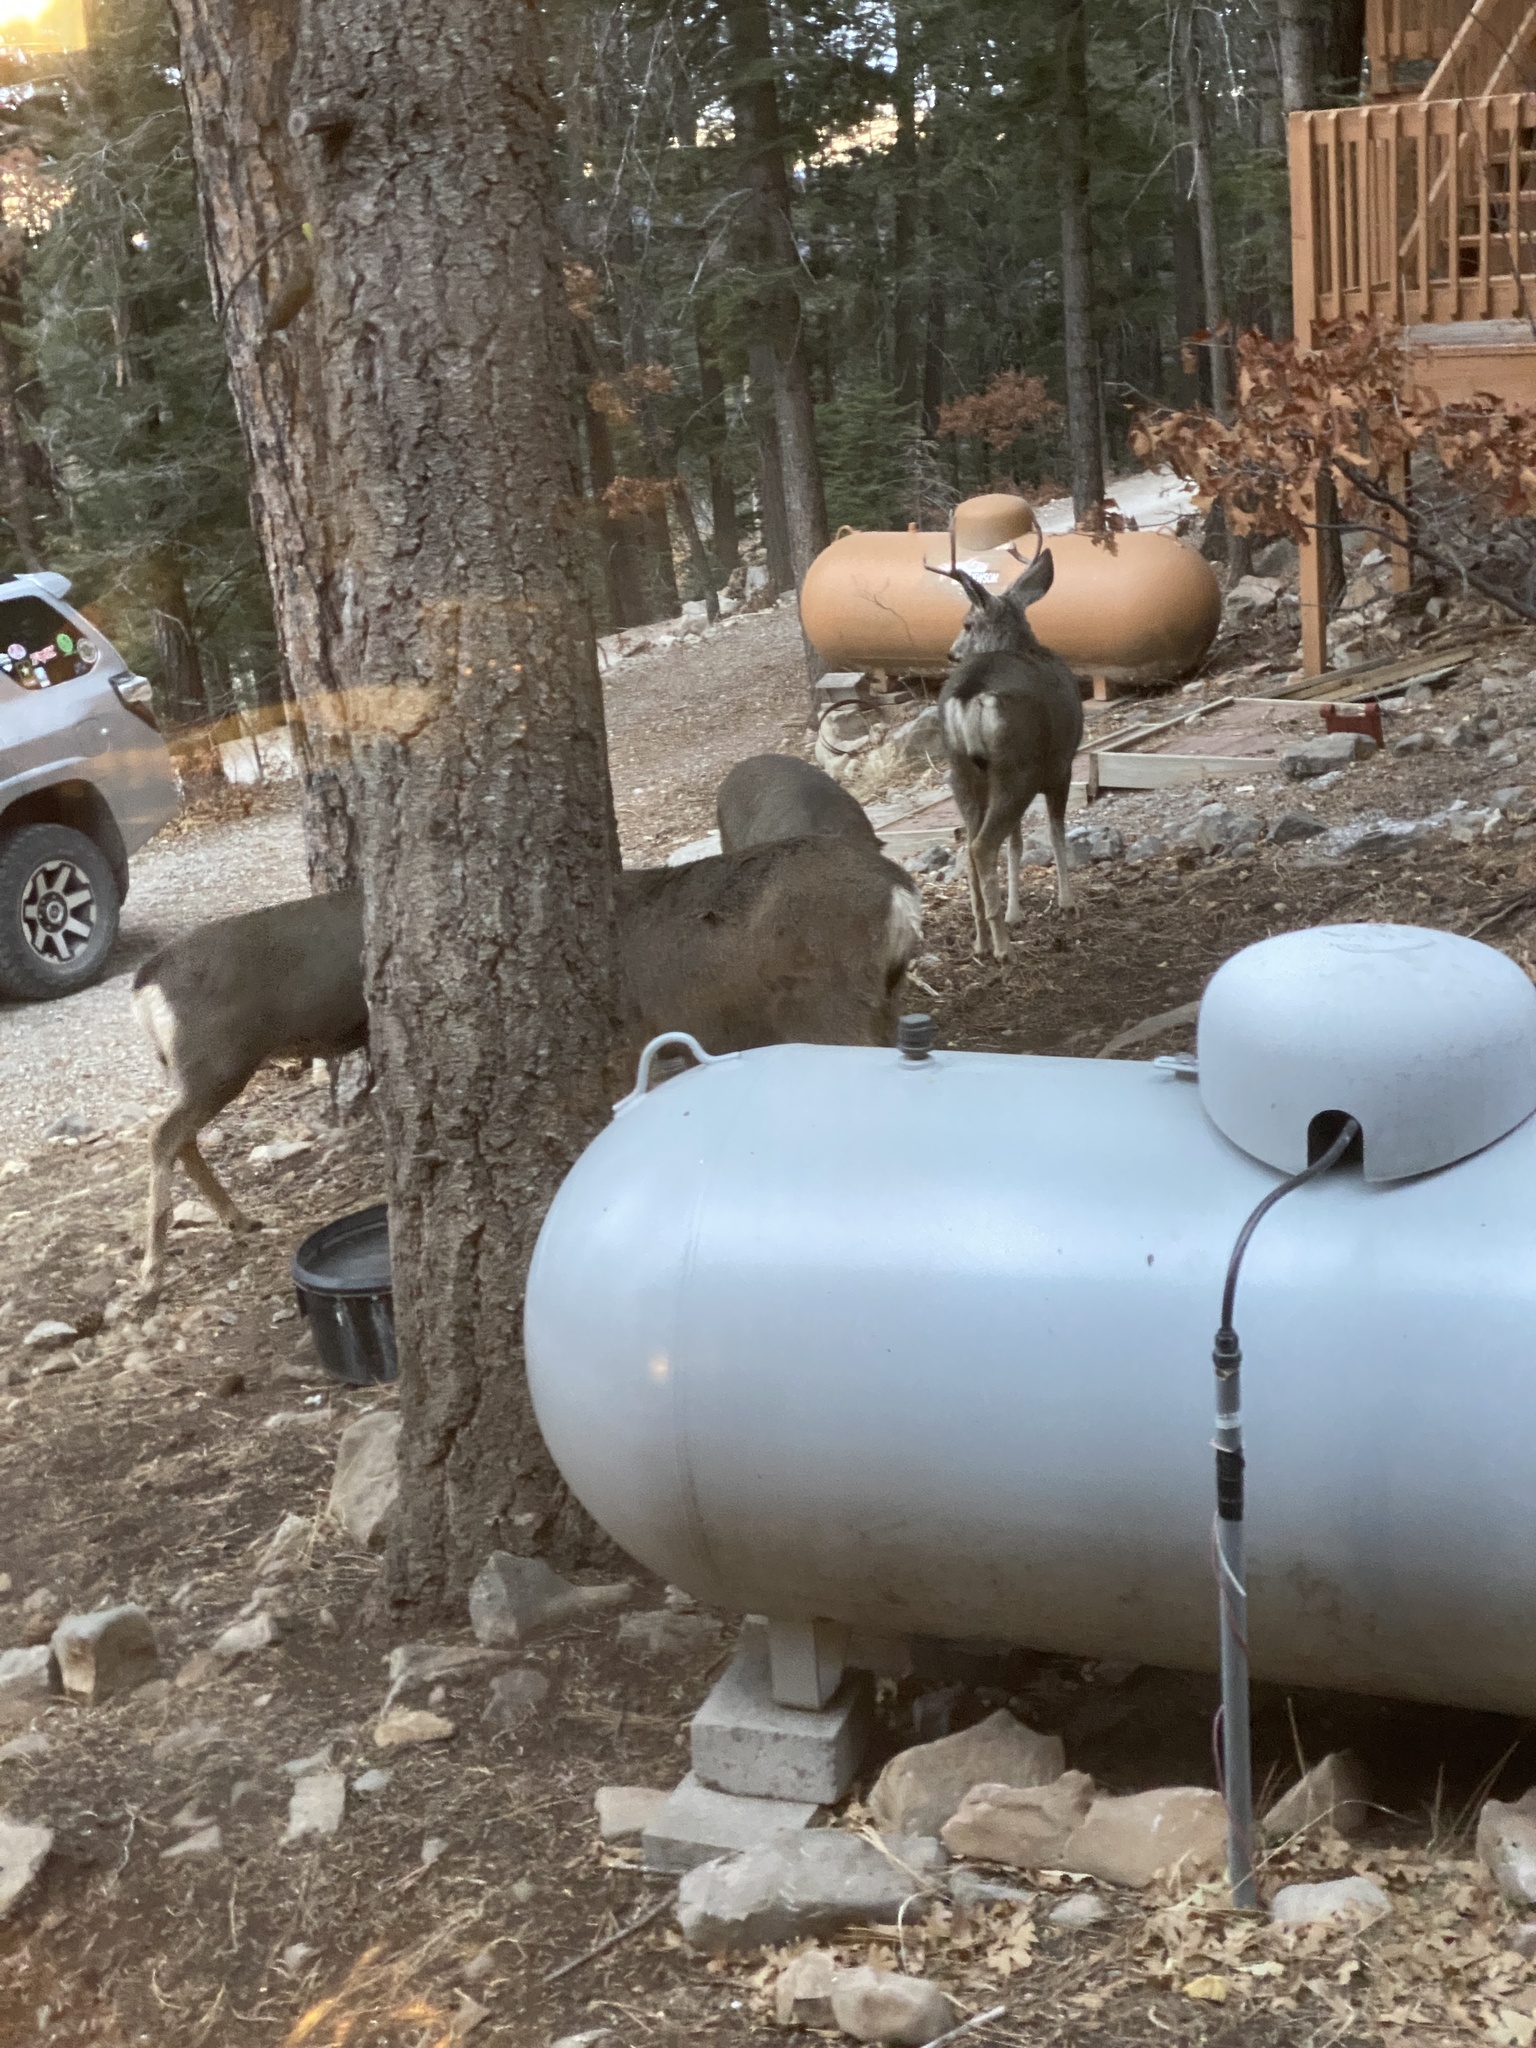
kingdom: Animalia
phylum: Chordata
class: Mammalia
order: Artiodactyla
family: Cervidae
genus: Odocoileus
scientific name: Odocoileus hemionus
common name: Mule deer
